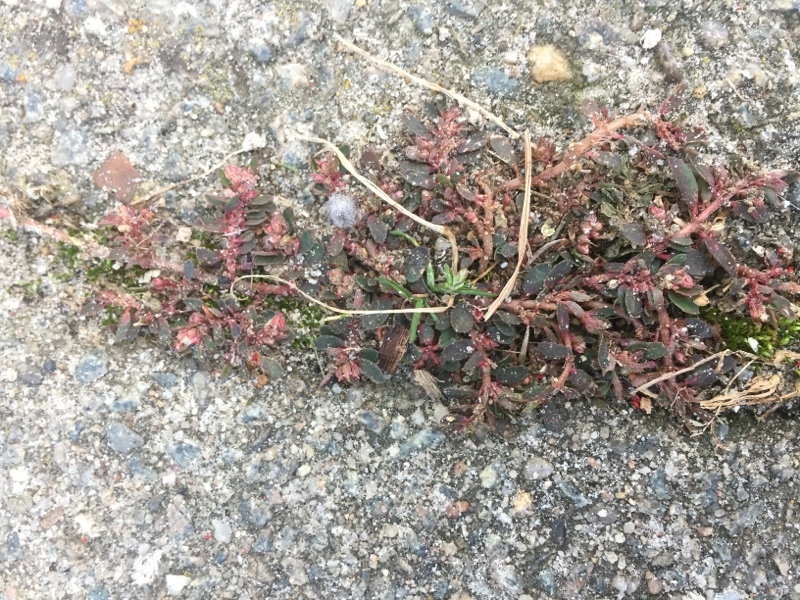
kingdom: Plantae
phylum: Tracheophyta
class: Magnoliopsida
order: Malpighiales
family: Euphorbiaceae
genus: Euphorbia
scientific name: Euphorbia maculata
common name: Spotted spurge
